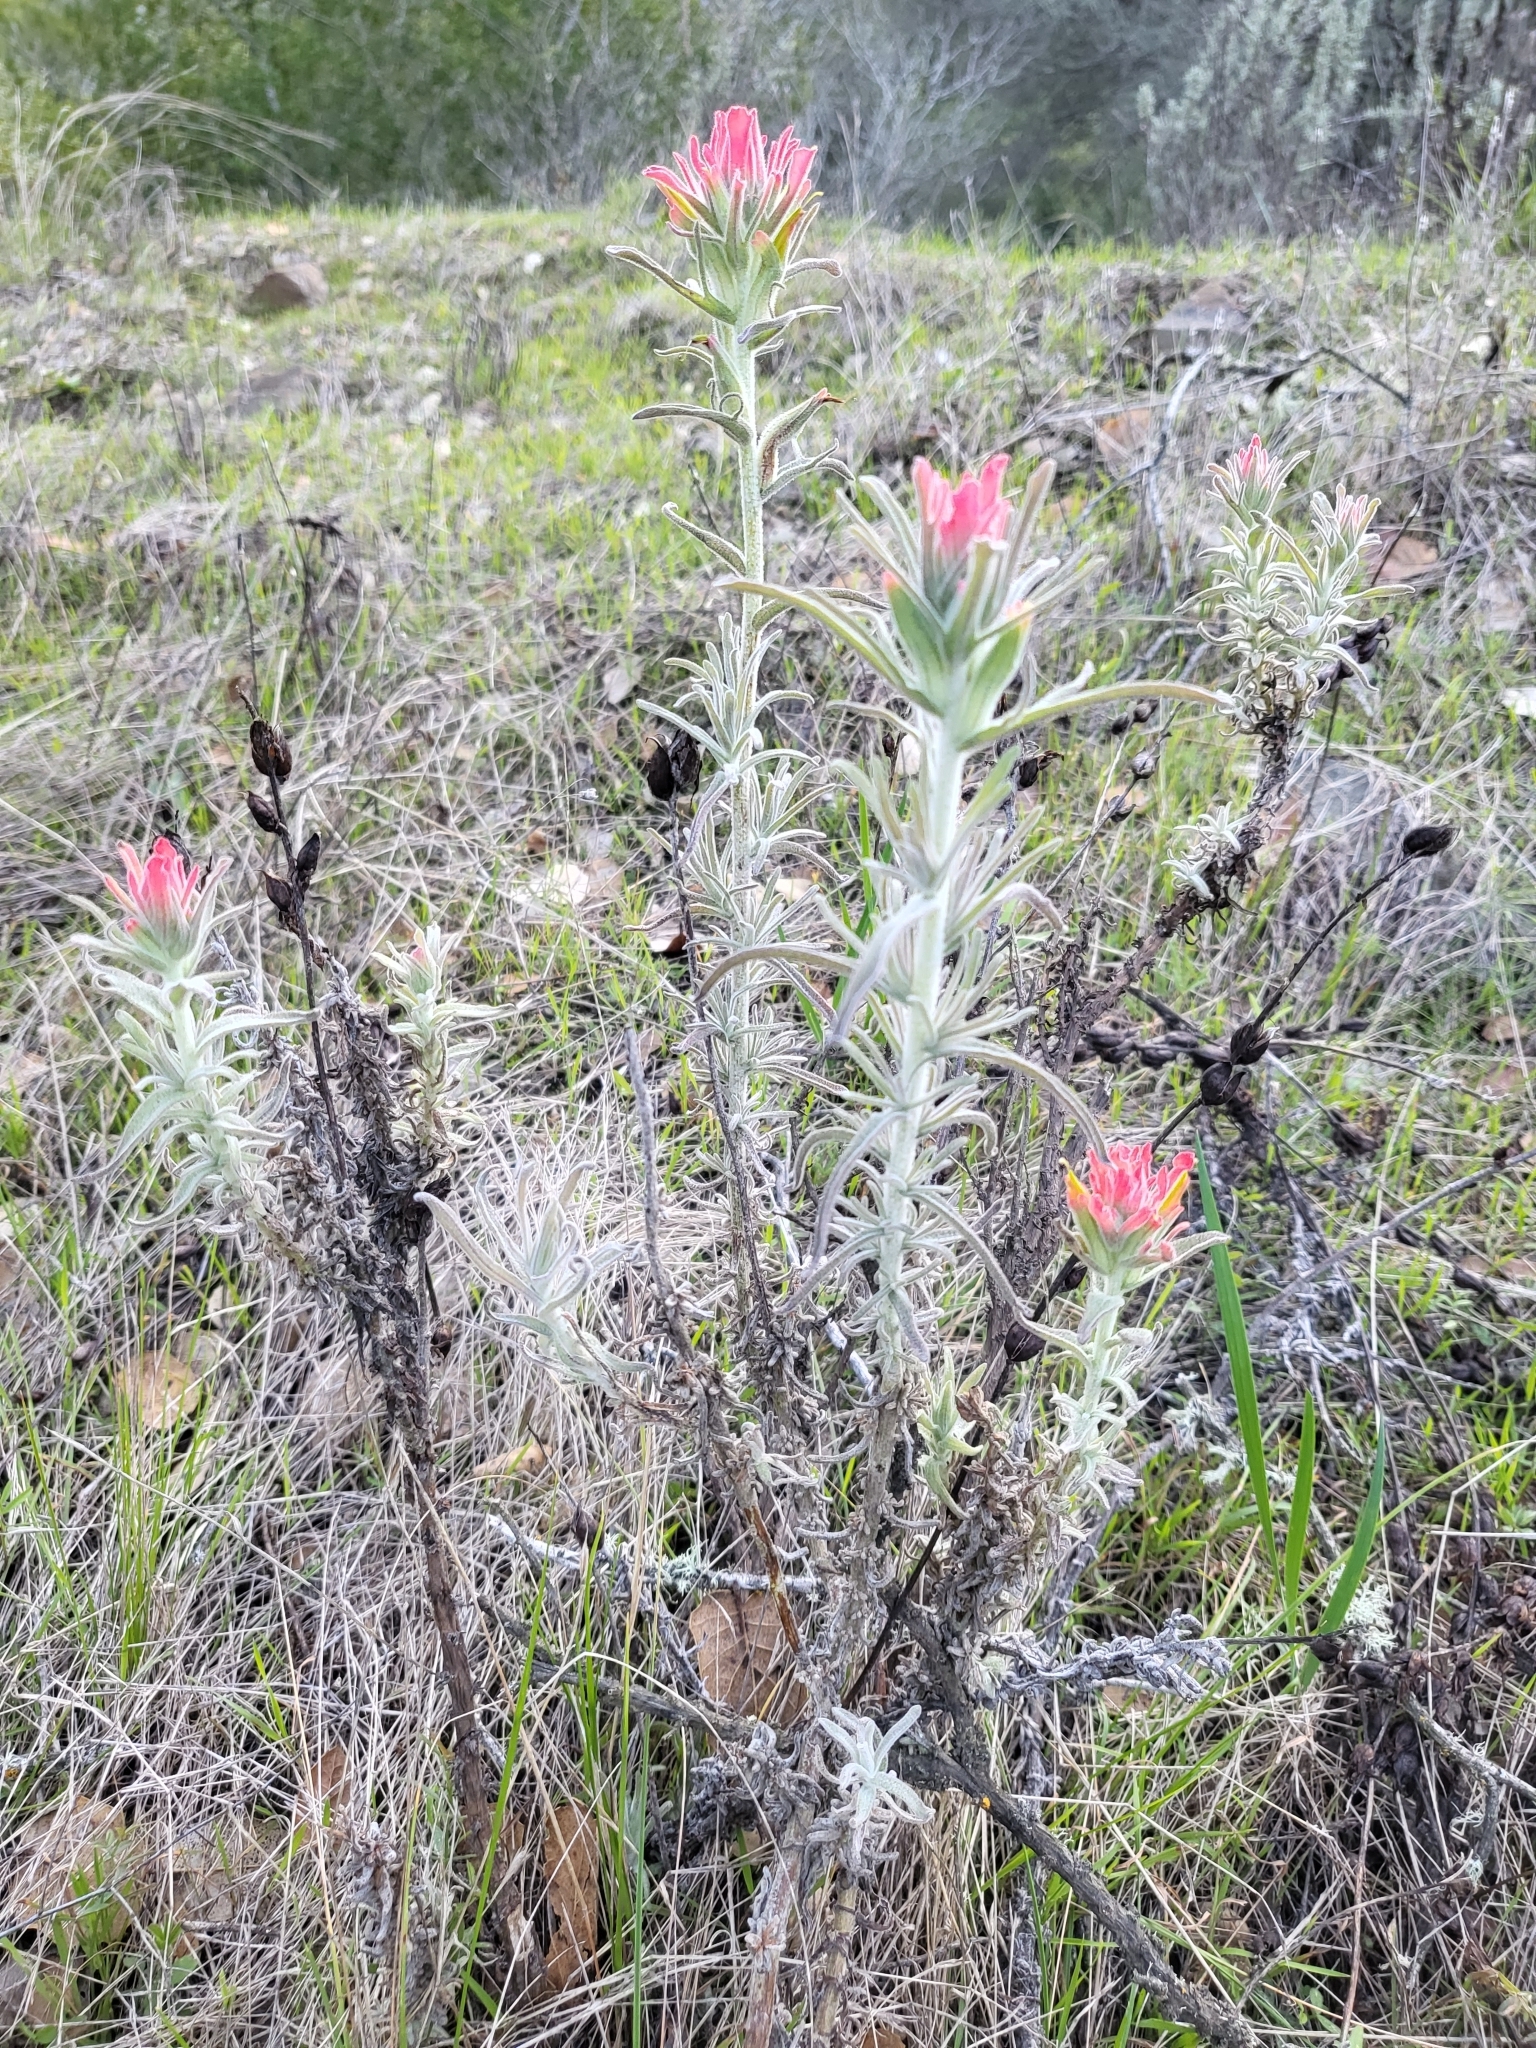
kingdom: Plantae
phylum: Tracheophyta
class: Magnoliopsida
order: Lamiales
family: Orobanchaceae
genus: Castilleja
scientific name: Castilleja foliolosa
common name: Woolly indian paintbrush
